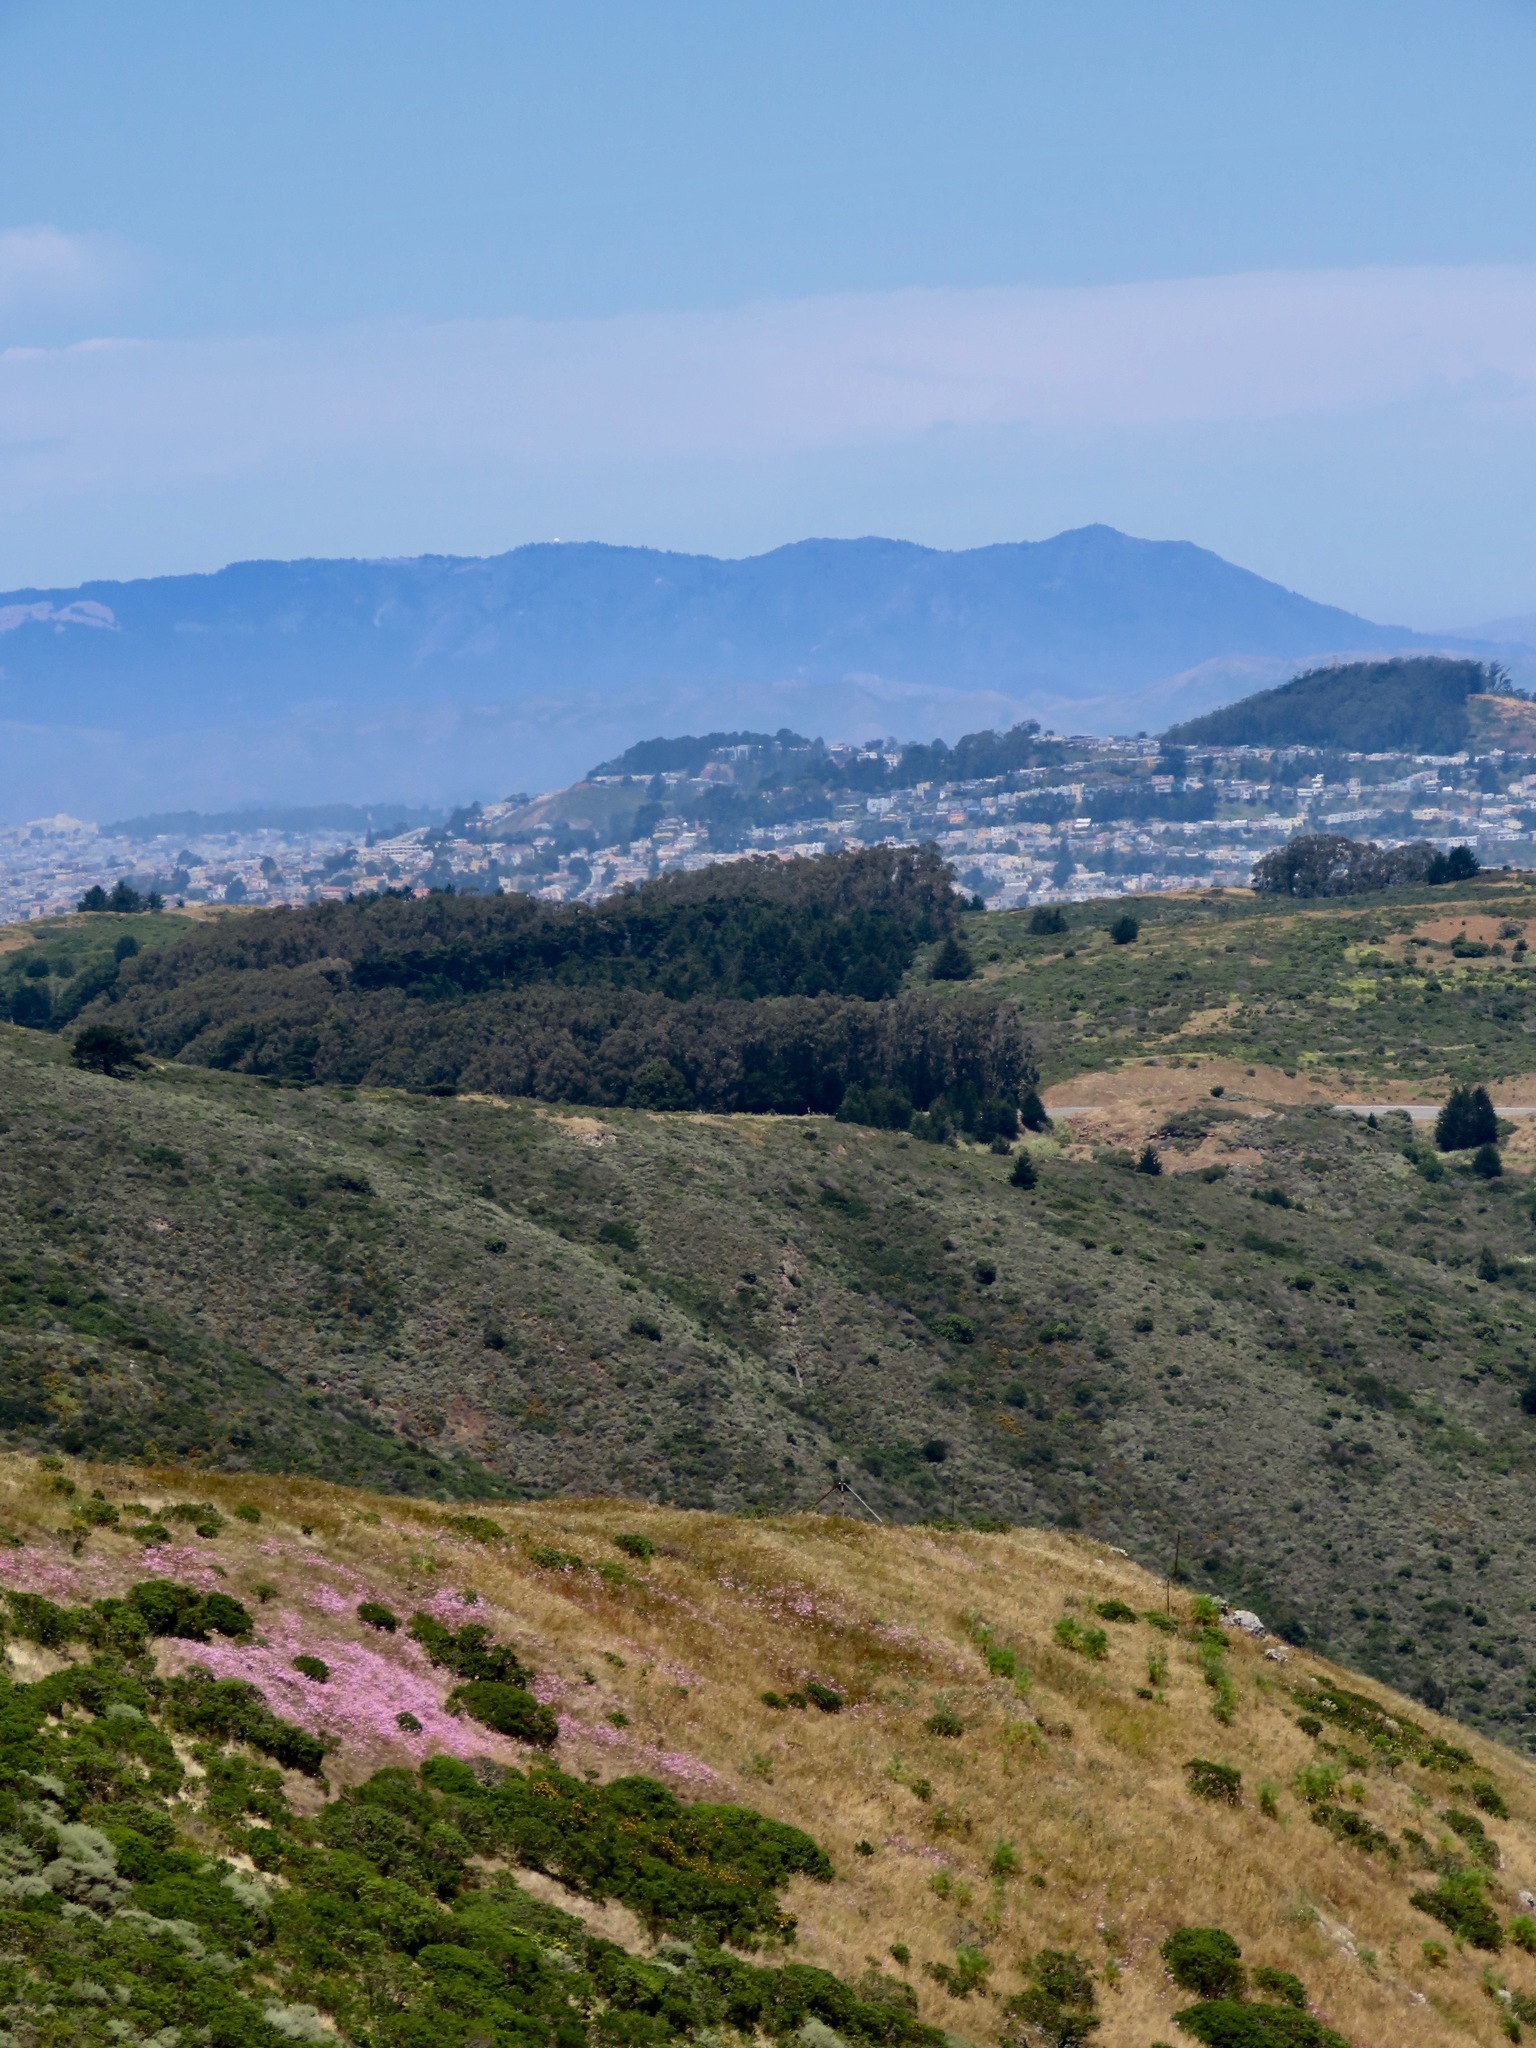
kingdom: Plantae
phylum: Tracheophyta
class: Magnoliopsida
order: Myrtales
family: Onagraceae
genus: Clarkia
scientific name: Clarkia rubicunda
